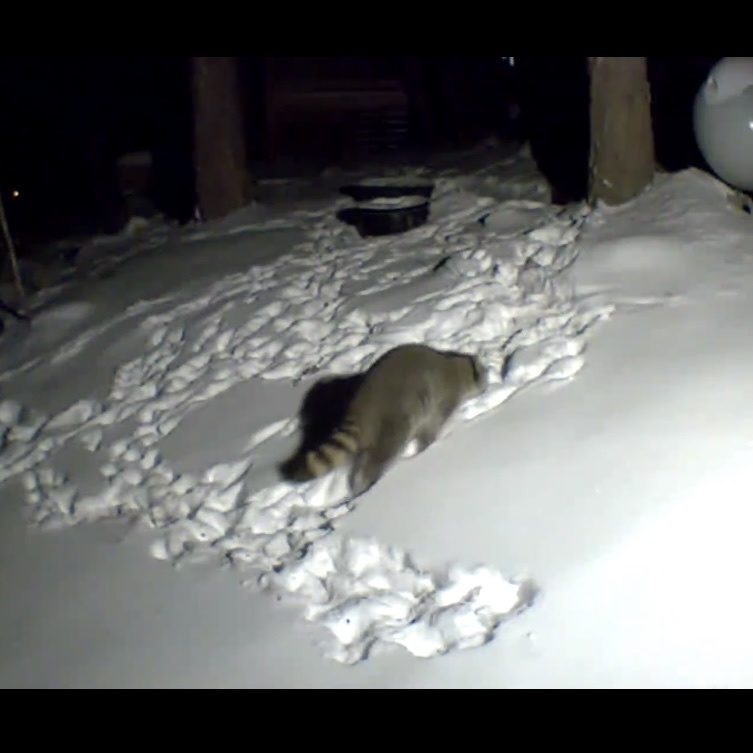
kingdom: Animalia
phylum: Chordata
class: Mammalia
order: Carnivora
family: Procyonidae
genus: Procyon
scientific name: Procyon lotor
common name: Raccoon
